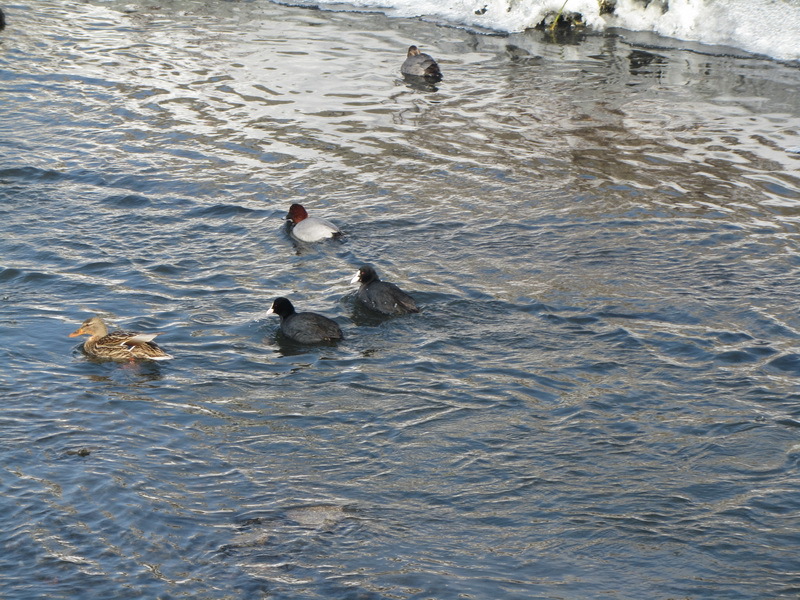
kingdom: Animalia
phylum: Chordata
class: Aves
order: Gruiformes
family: Rallidae
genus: Fulica
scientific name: Fulica atra
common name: Eurasian coot
